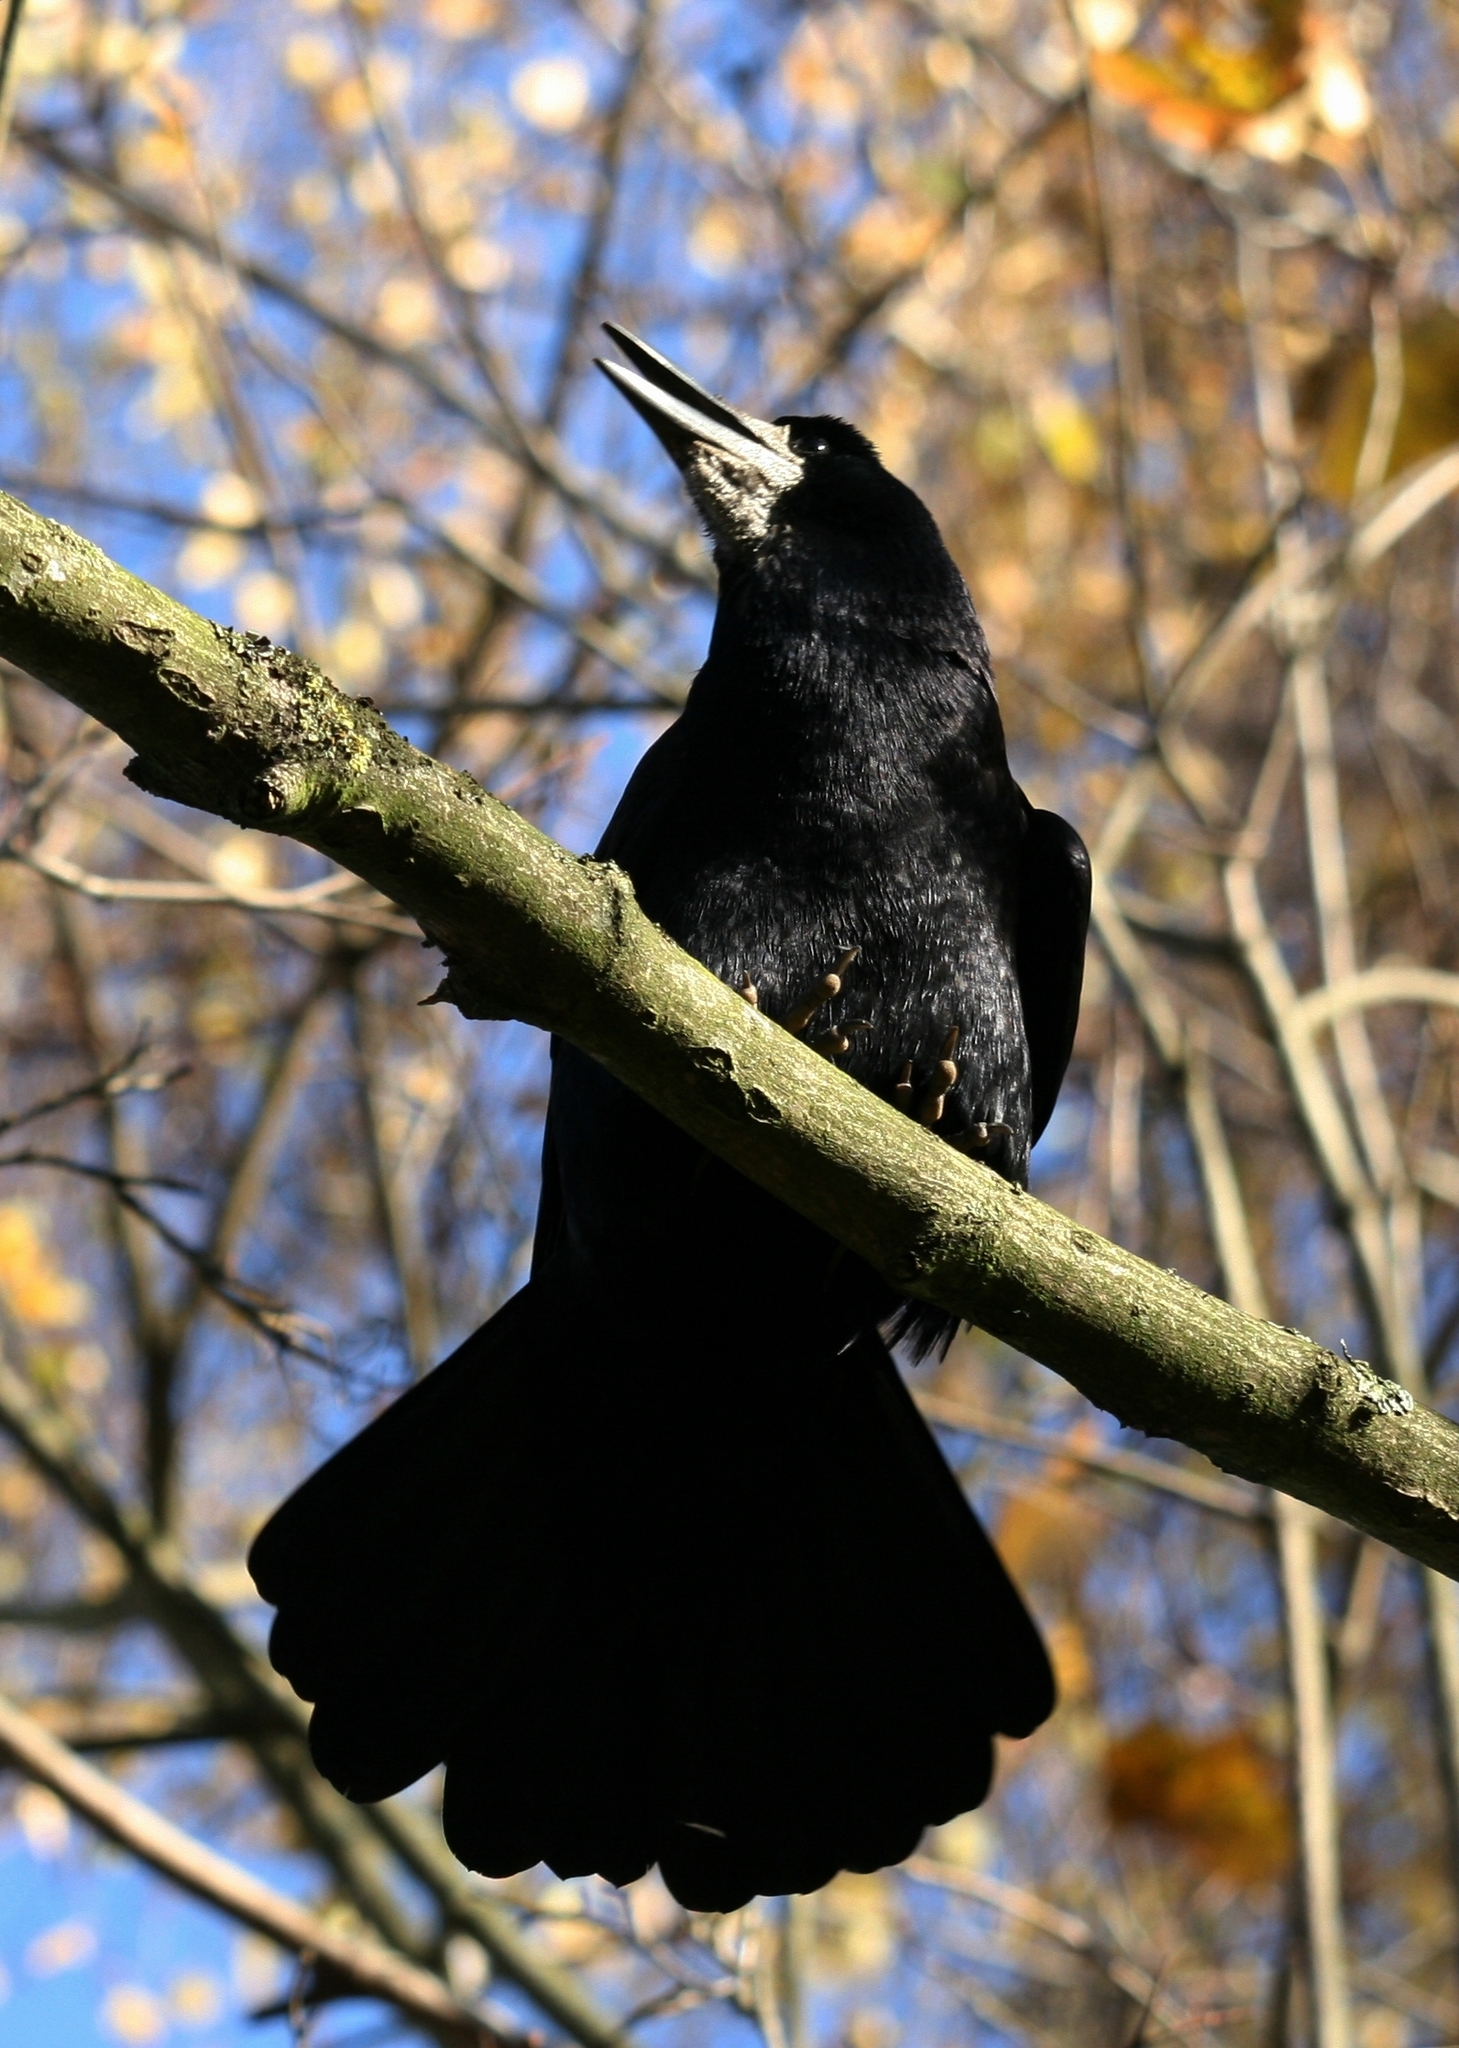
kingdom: Animalia
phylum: Chordata
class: Aves
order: Passeriformes
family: Corvidae
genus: Corvus
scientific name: Corvus frugilegus
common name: Rook
